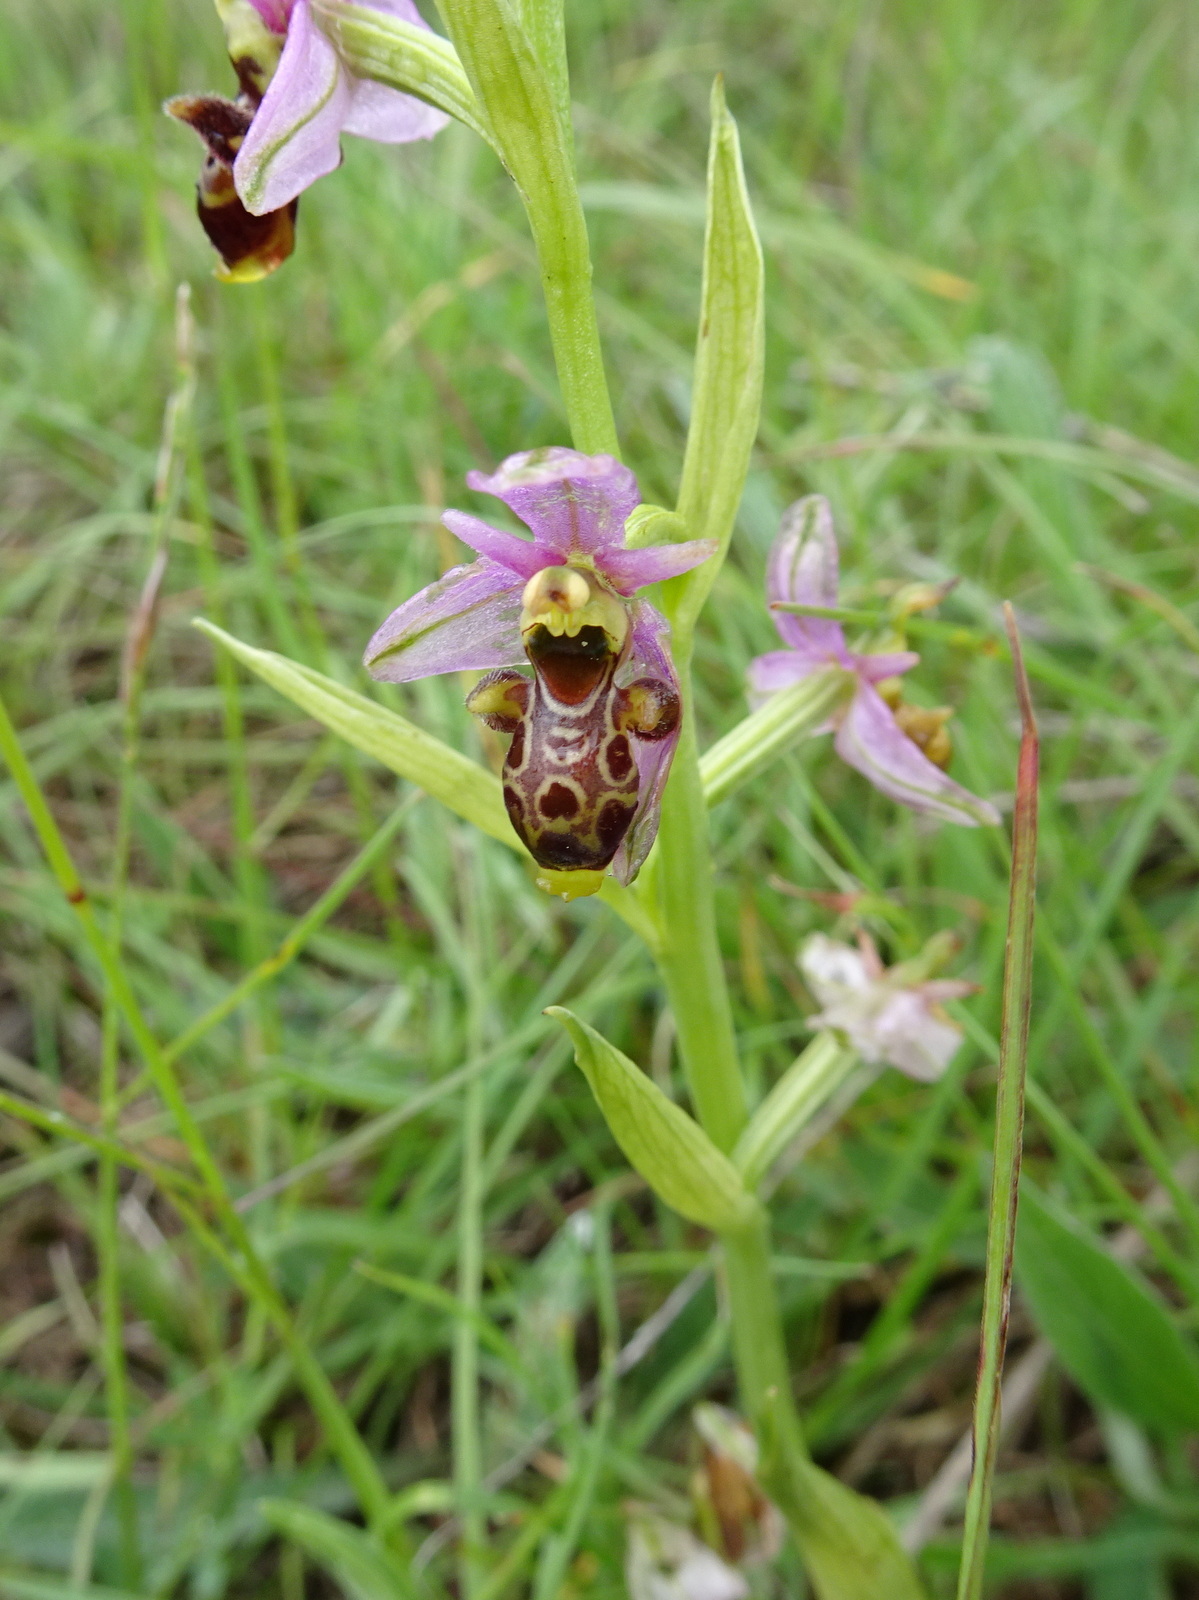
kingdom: Plantae
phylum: Tracheophyta
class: Liliopsida
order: Asparagales
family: Orchidaceae
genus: Ophrys
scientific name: Ophrys scolopax
